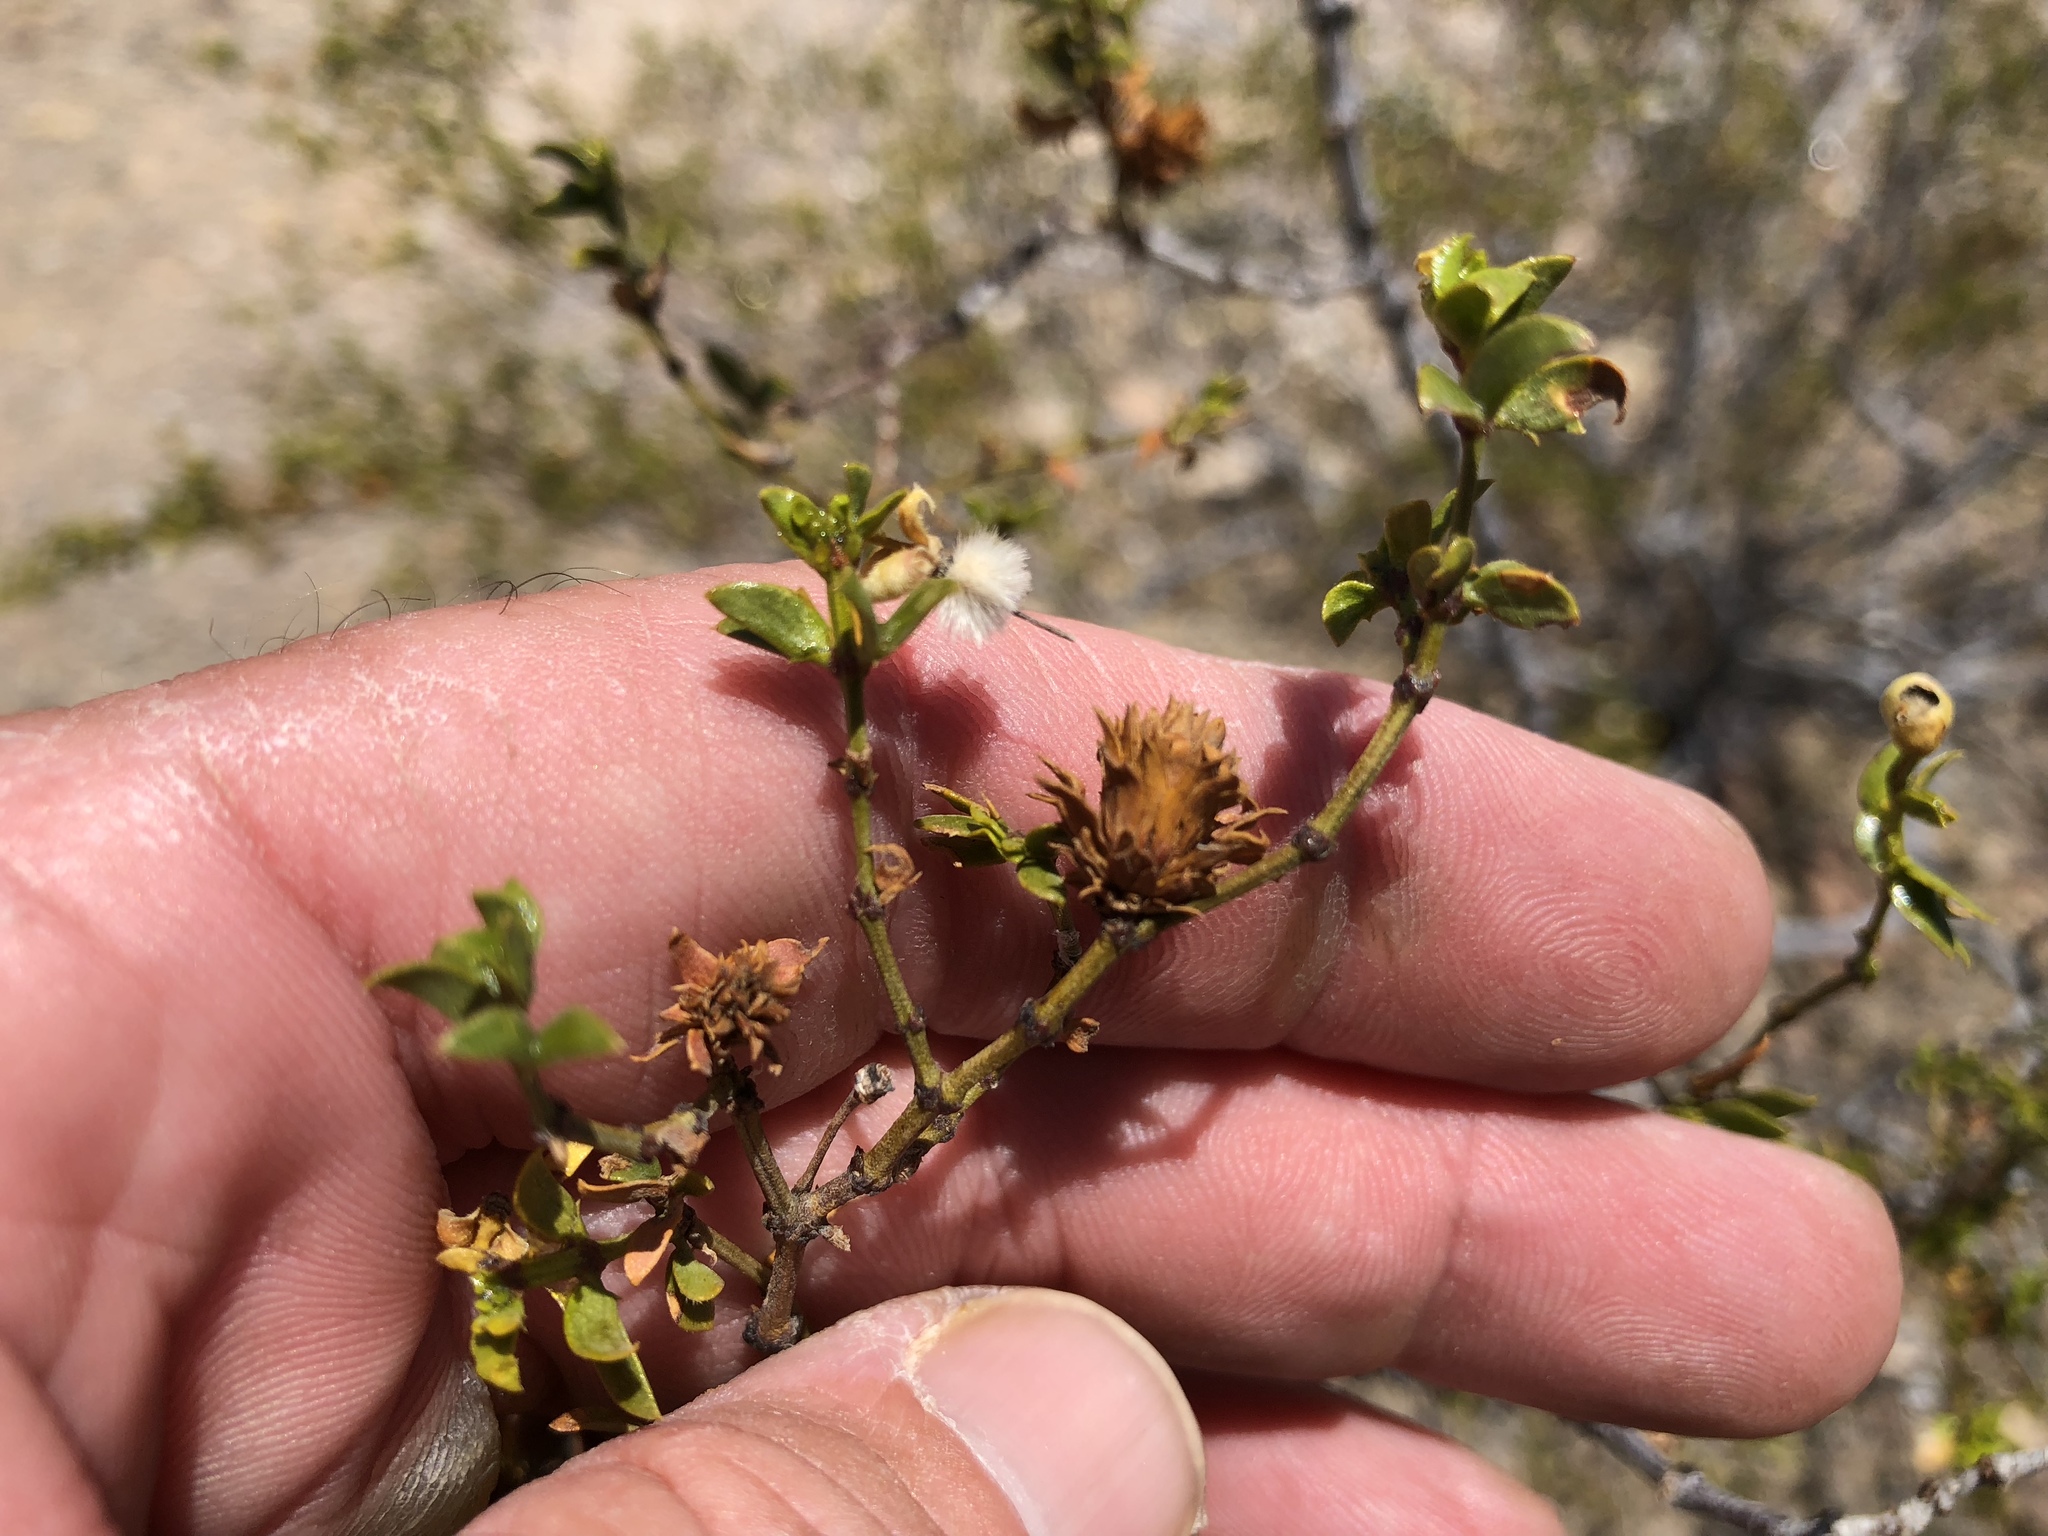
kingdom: Animalia
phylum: Arthropoda
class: Insecta
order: Diptera
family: Cecidomyiidae
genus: Asphondylia
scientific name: Asphondylia rosetta
